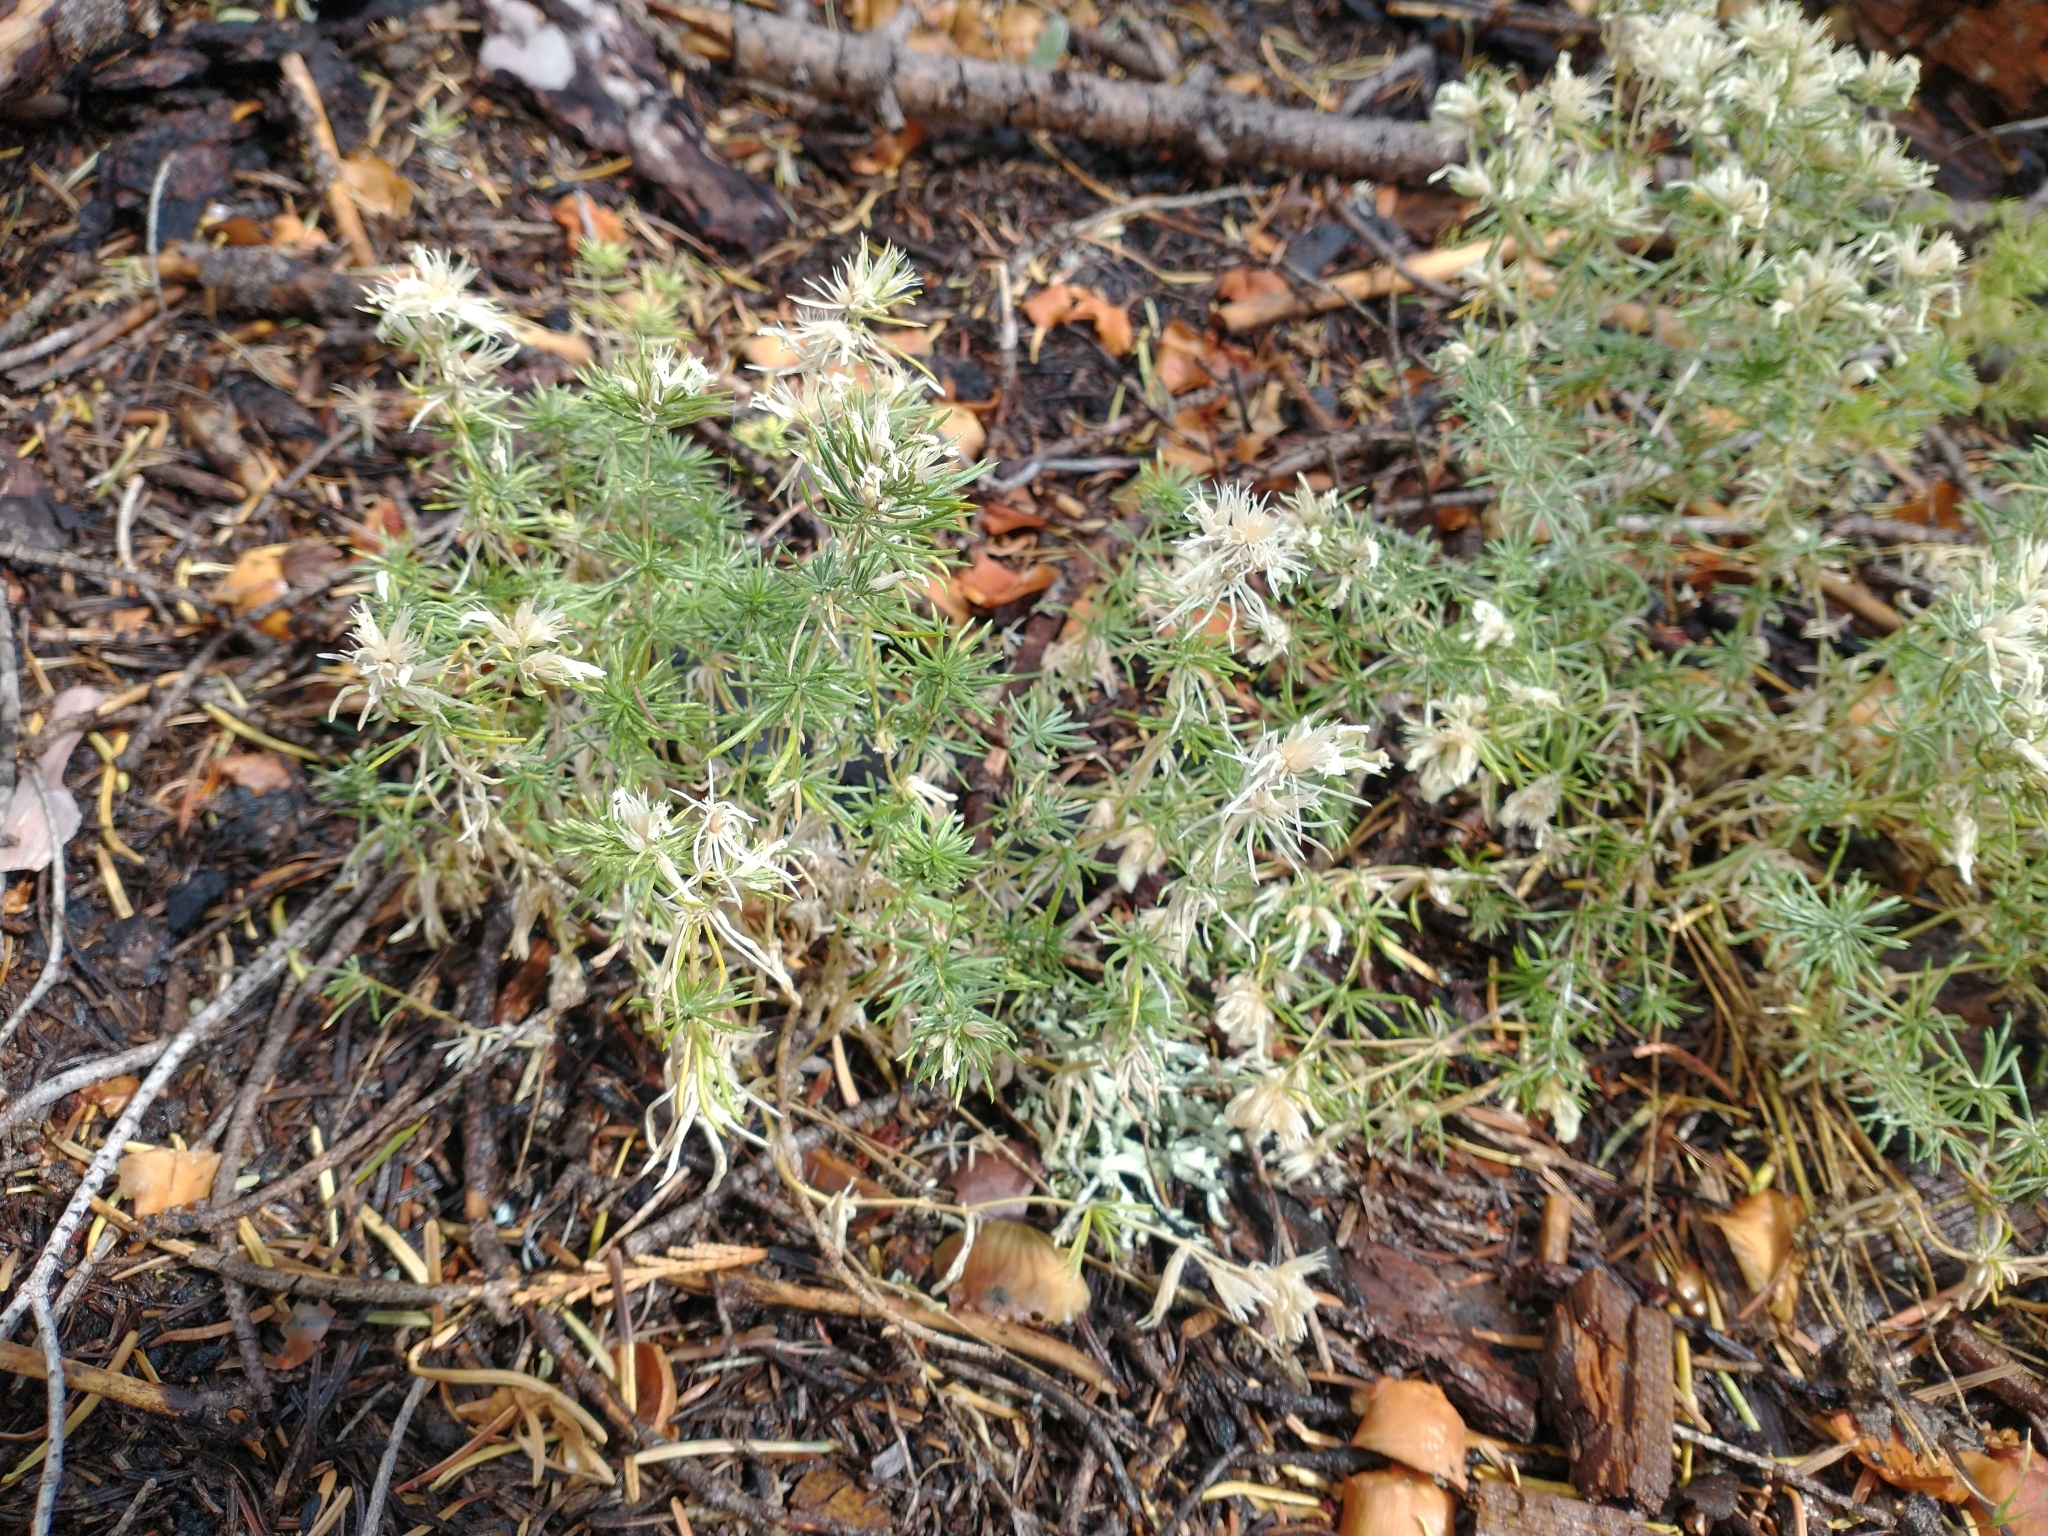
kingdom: Plantae
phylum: Tracheophyta
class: Magnoliopsida
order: Ericales
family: Polemoniaceae
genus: Leptosiphon
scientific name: Leptosiphon nuttallii
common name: Nuttall's linanthus
